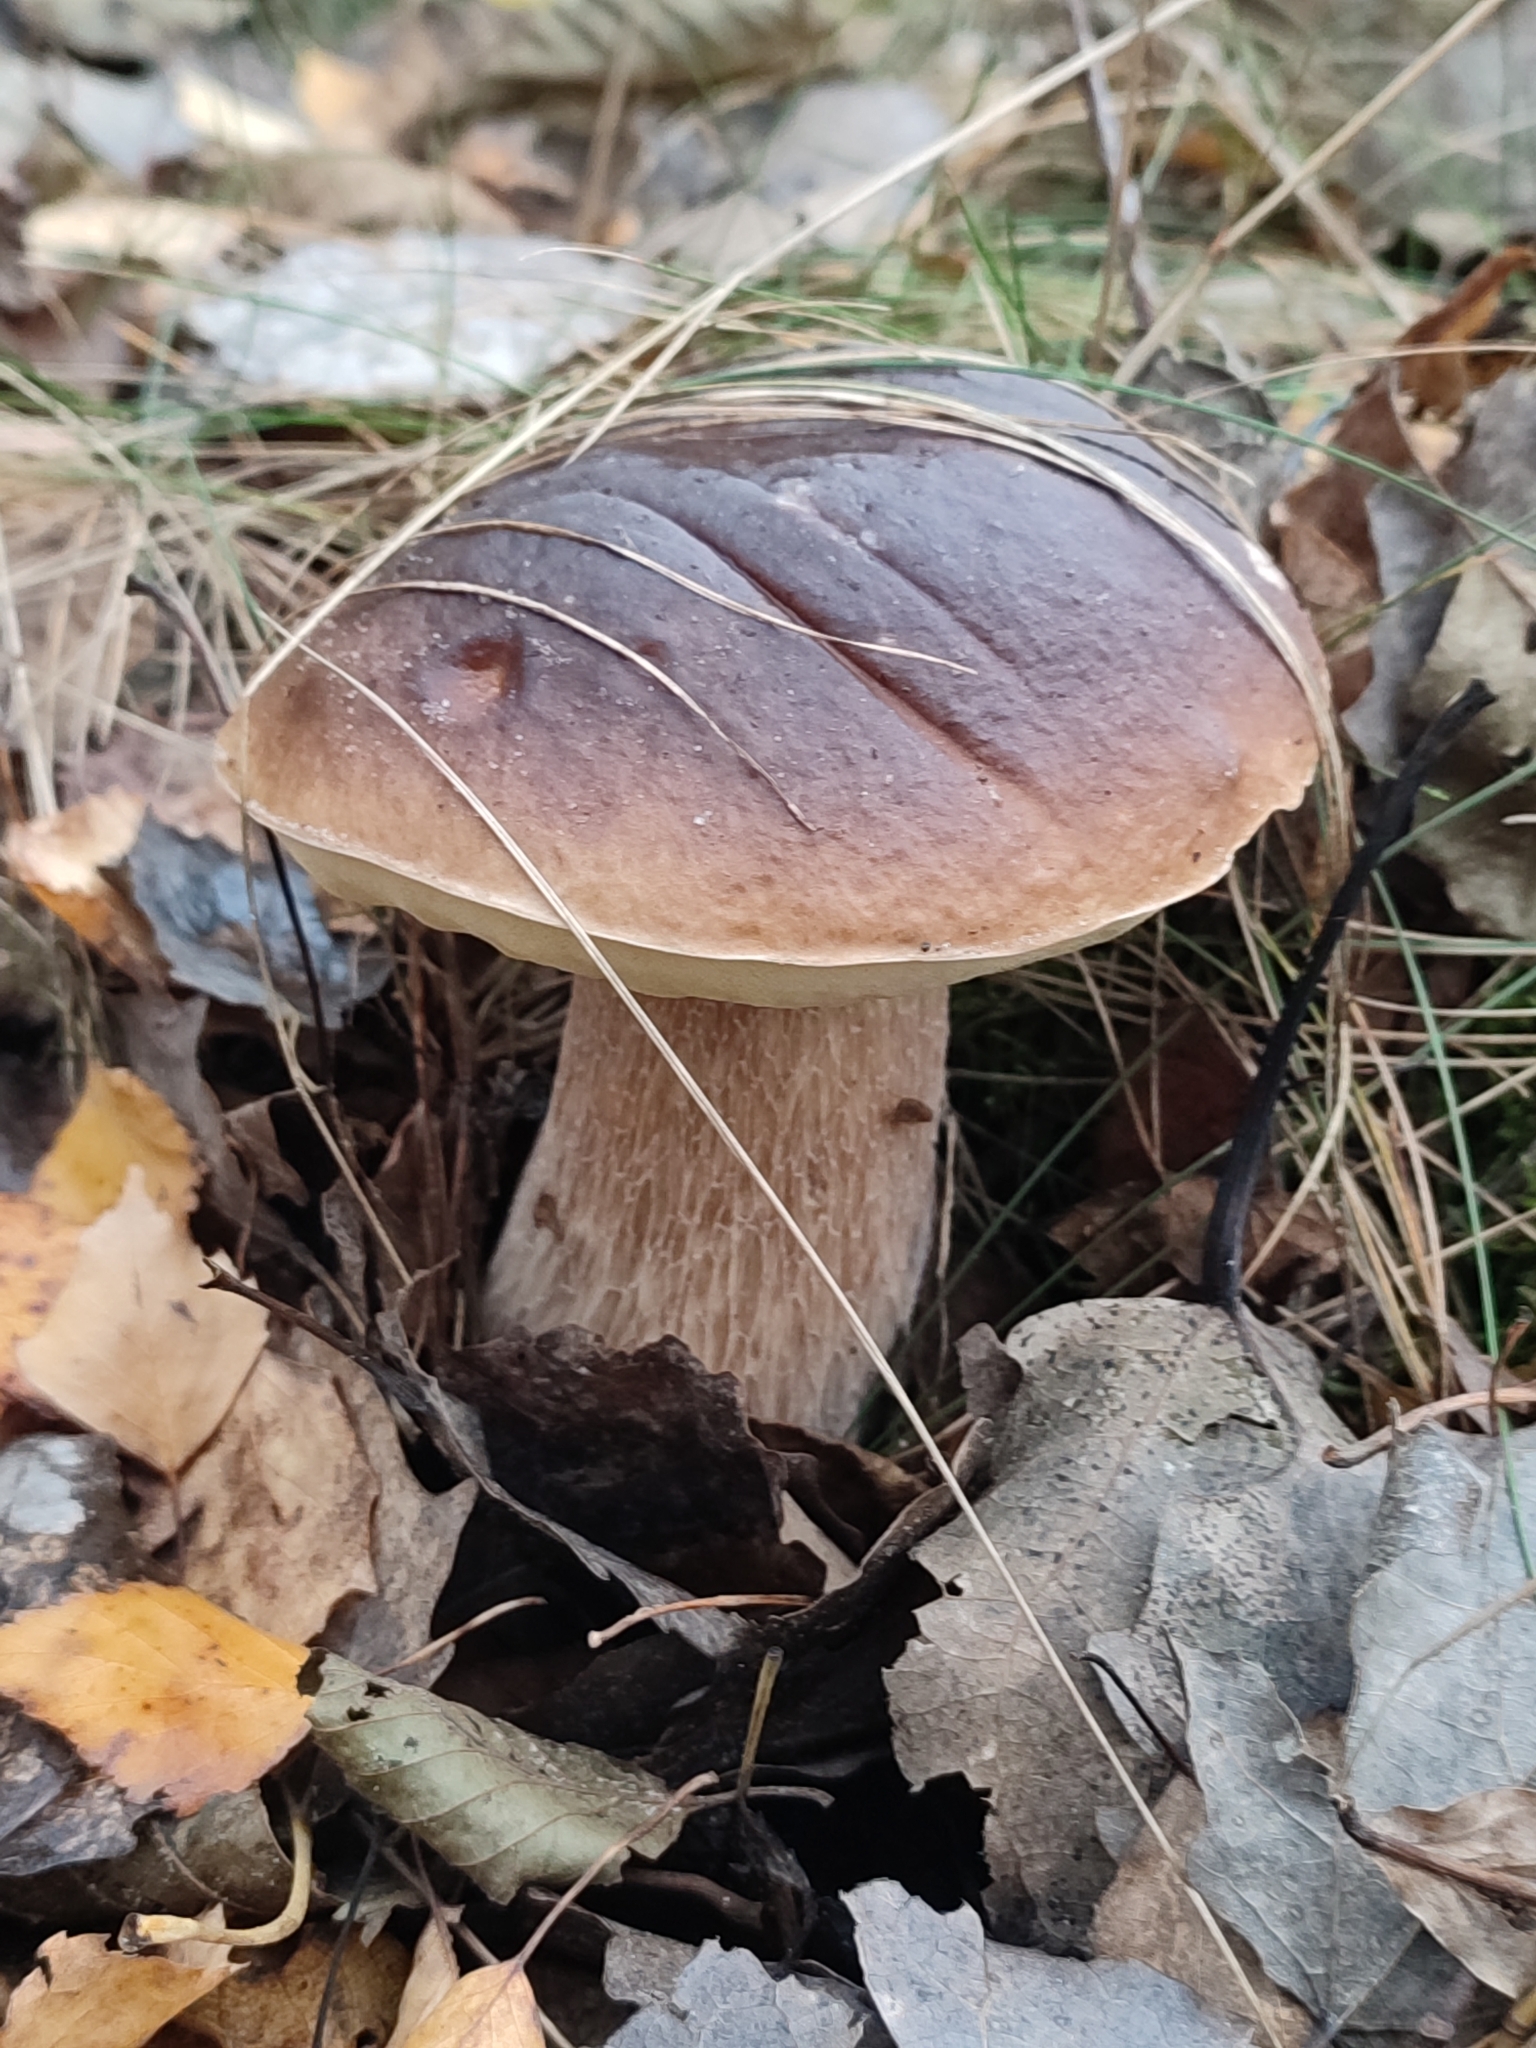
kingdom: Fungi
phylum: Basidiomycota
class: Agaricomycetes
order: Boletales
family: Boletaceae
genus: Boletus
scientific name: Boletus edulis
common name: Cep
